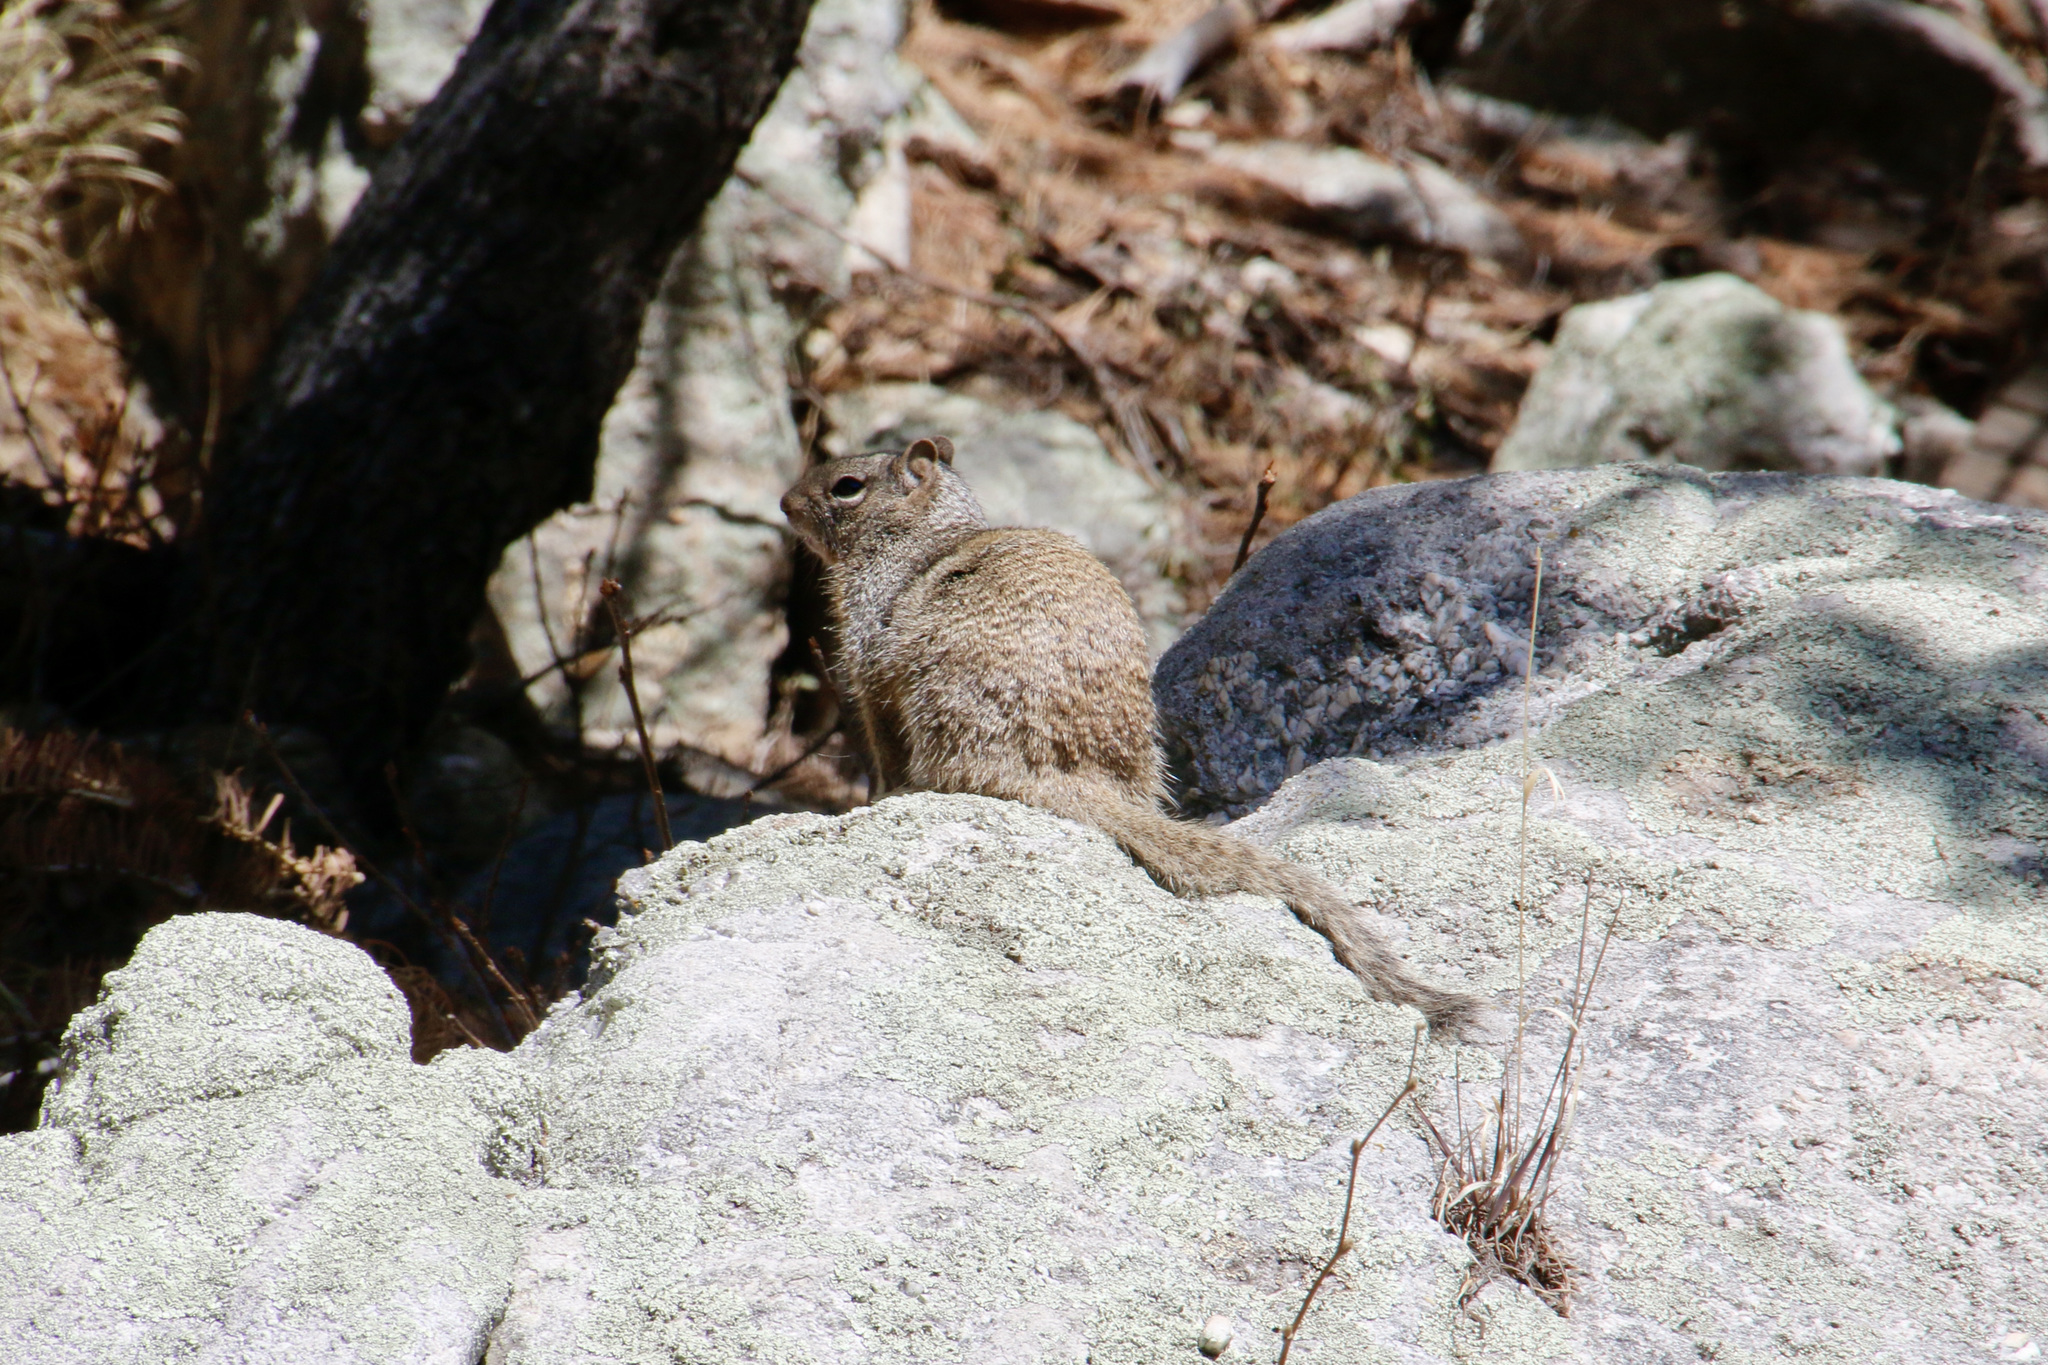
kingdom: Animalia
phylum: Chordata
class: Mammalia
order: Rodentia
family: Sciuridae
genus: Otospermophilus
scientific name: Otospermophilus variegatus
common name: Rock squirrel
